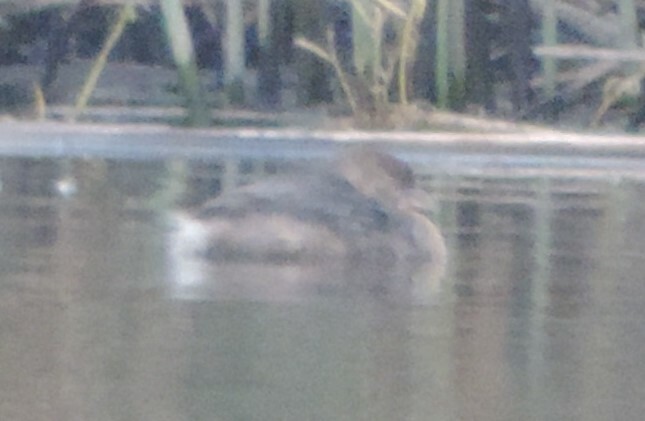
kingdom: Animalia
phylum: Chordata
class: Aves
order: Podicipediformes
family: Podicipedidae
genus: Podilymbus
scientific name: Podilymbus podiceps
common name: Pied-billed grebe
